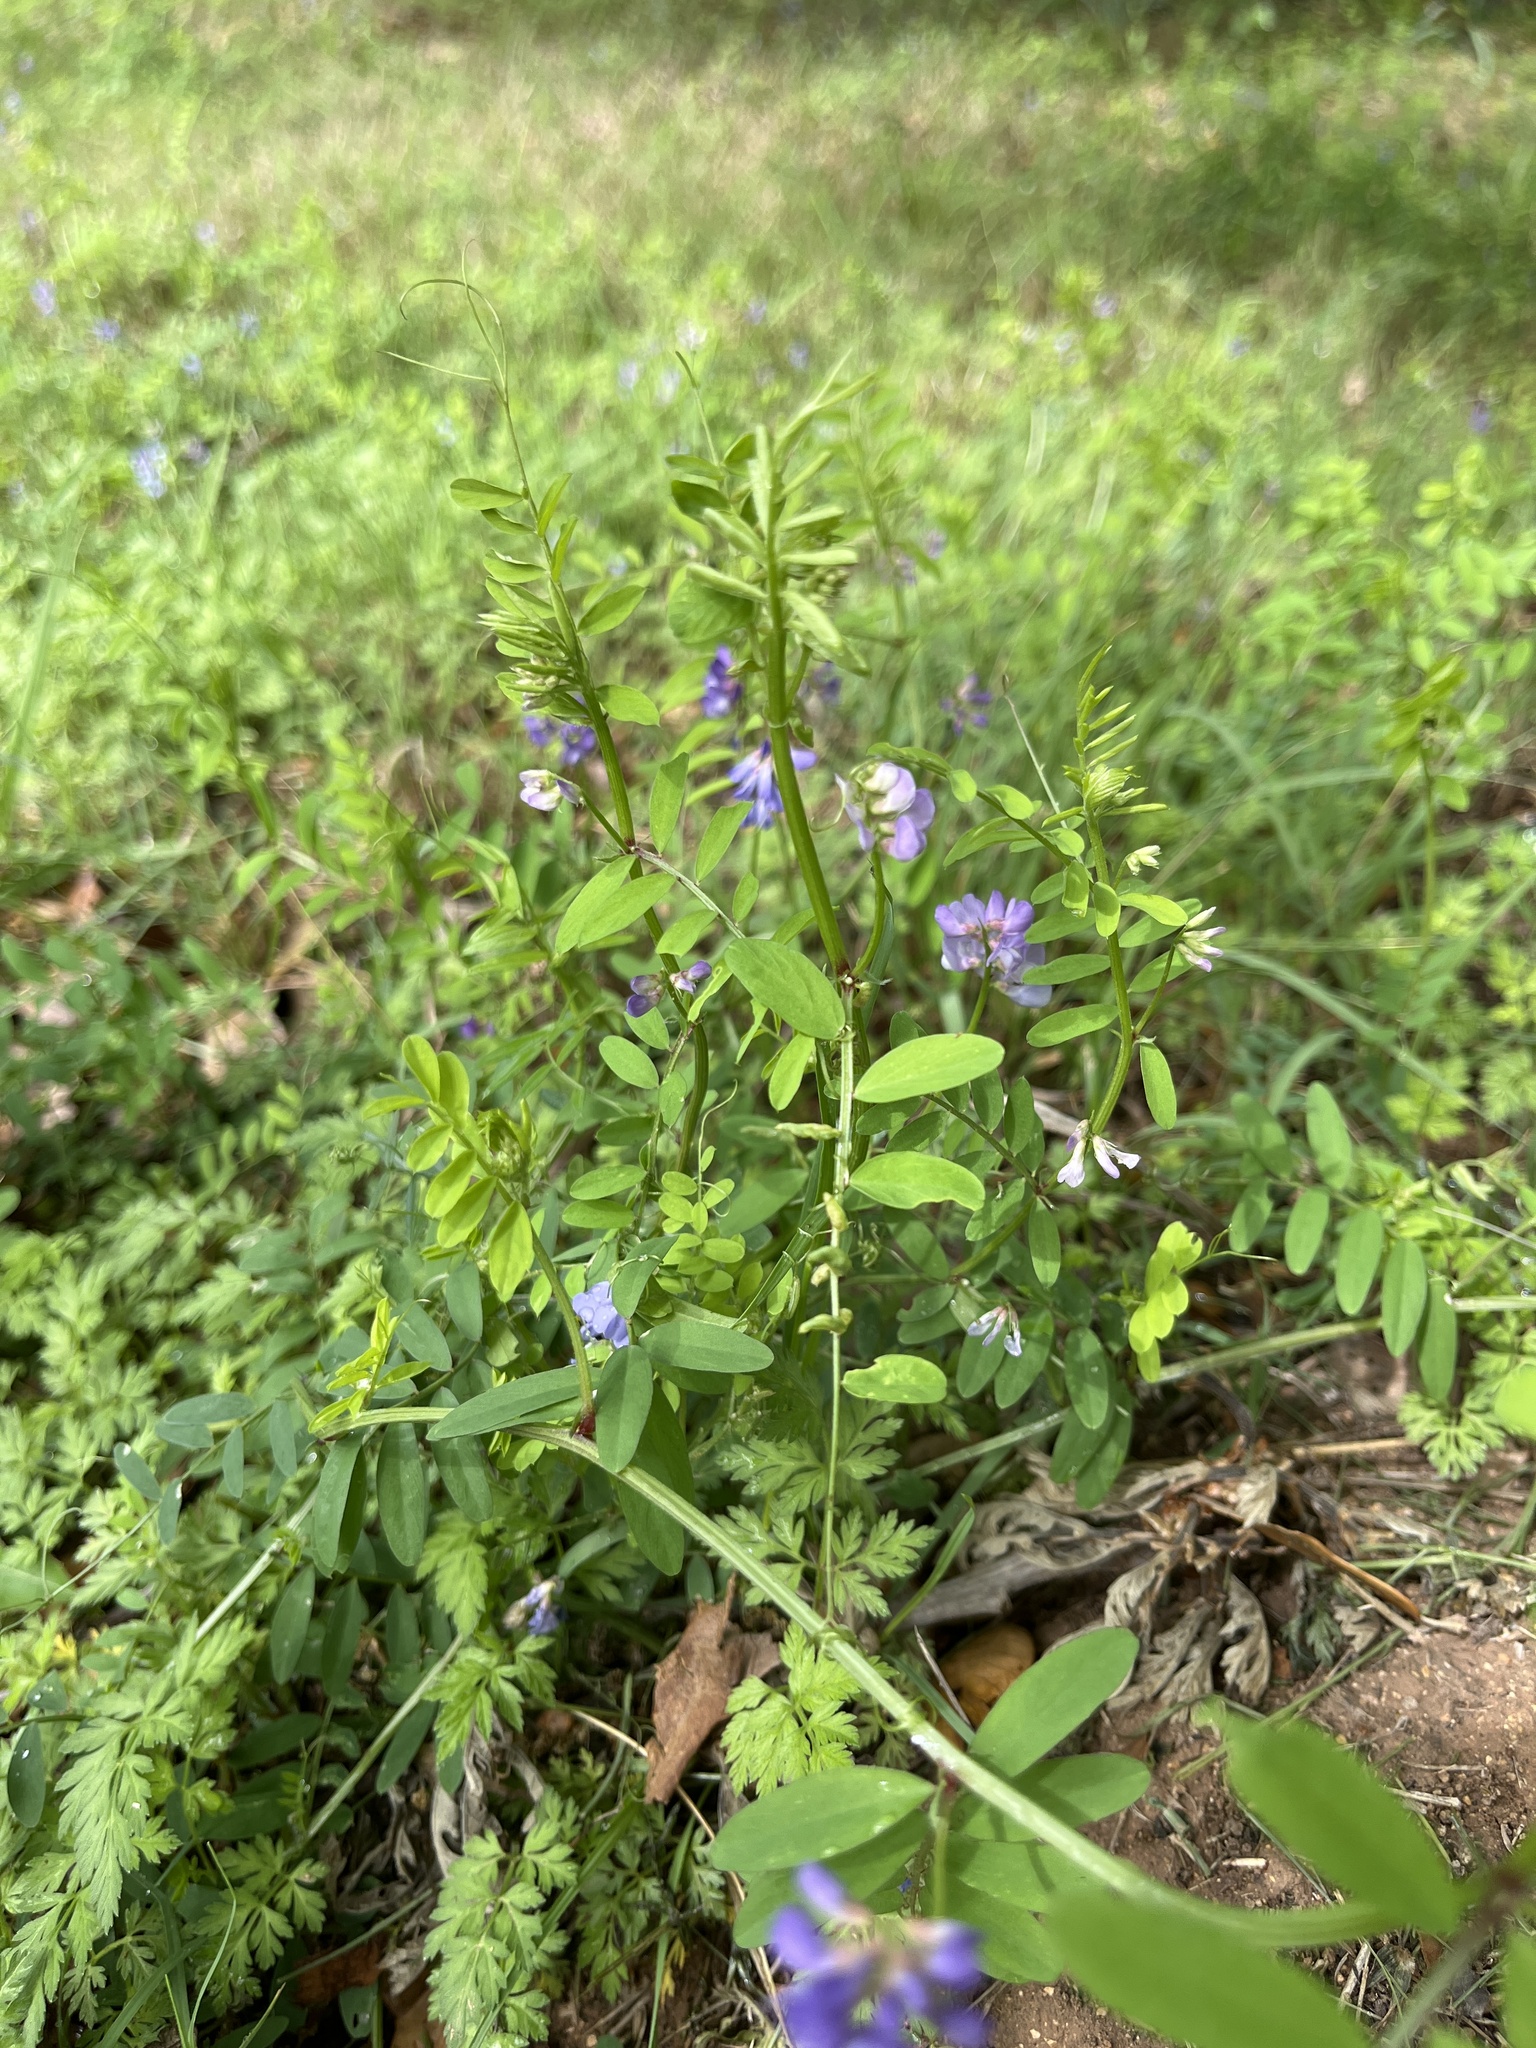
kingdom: Plantae
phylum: Tracheophyta
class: Magnoliopsida
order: Fabales
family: Fabaceae
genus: Vicia
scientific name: Vicia ludoviciana
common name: Louisiana vetch
